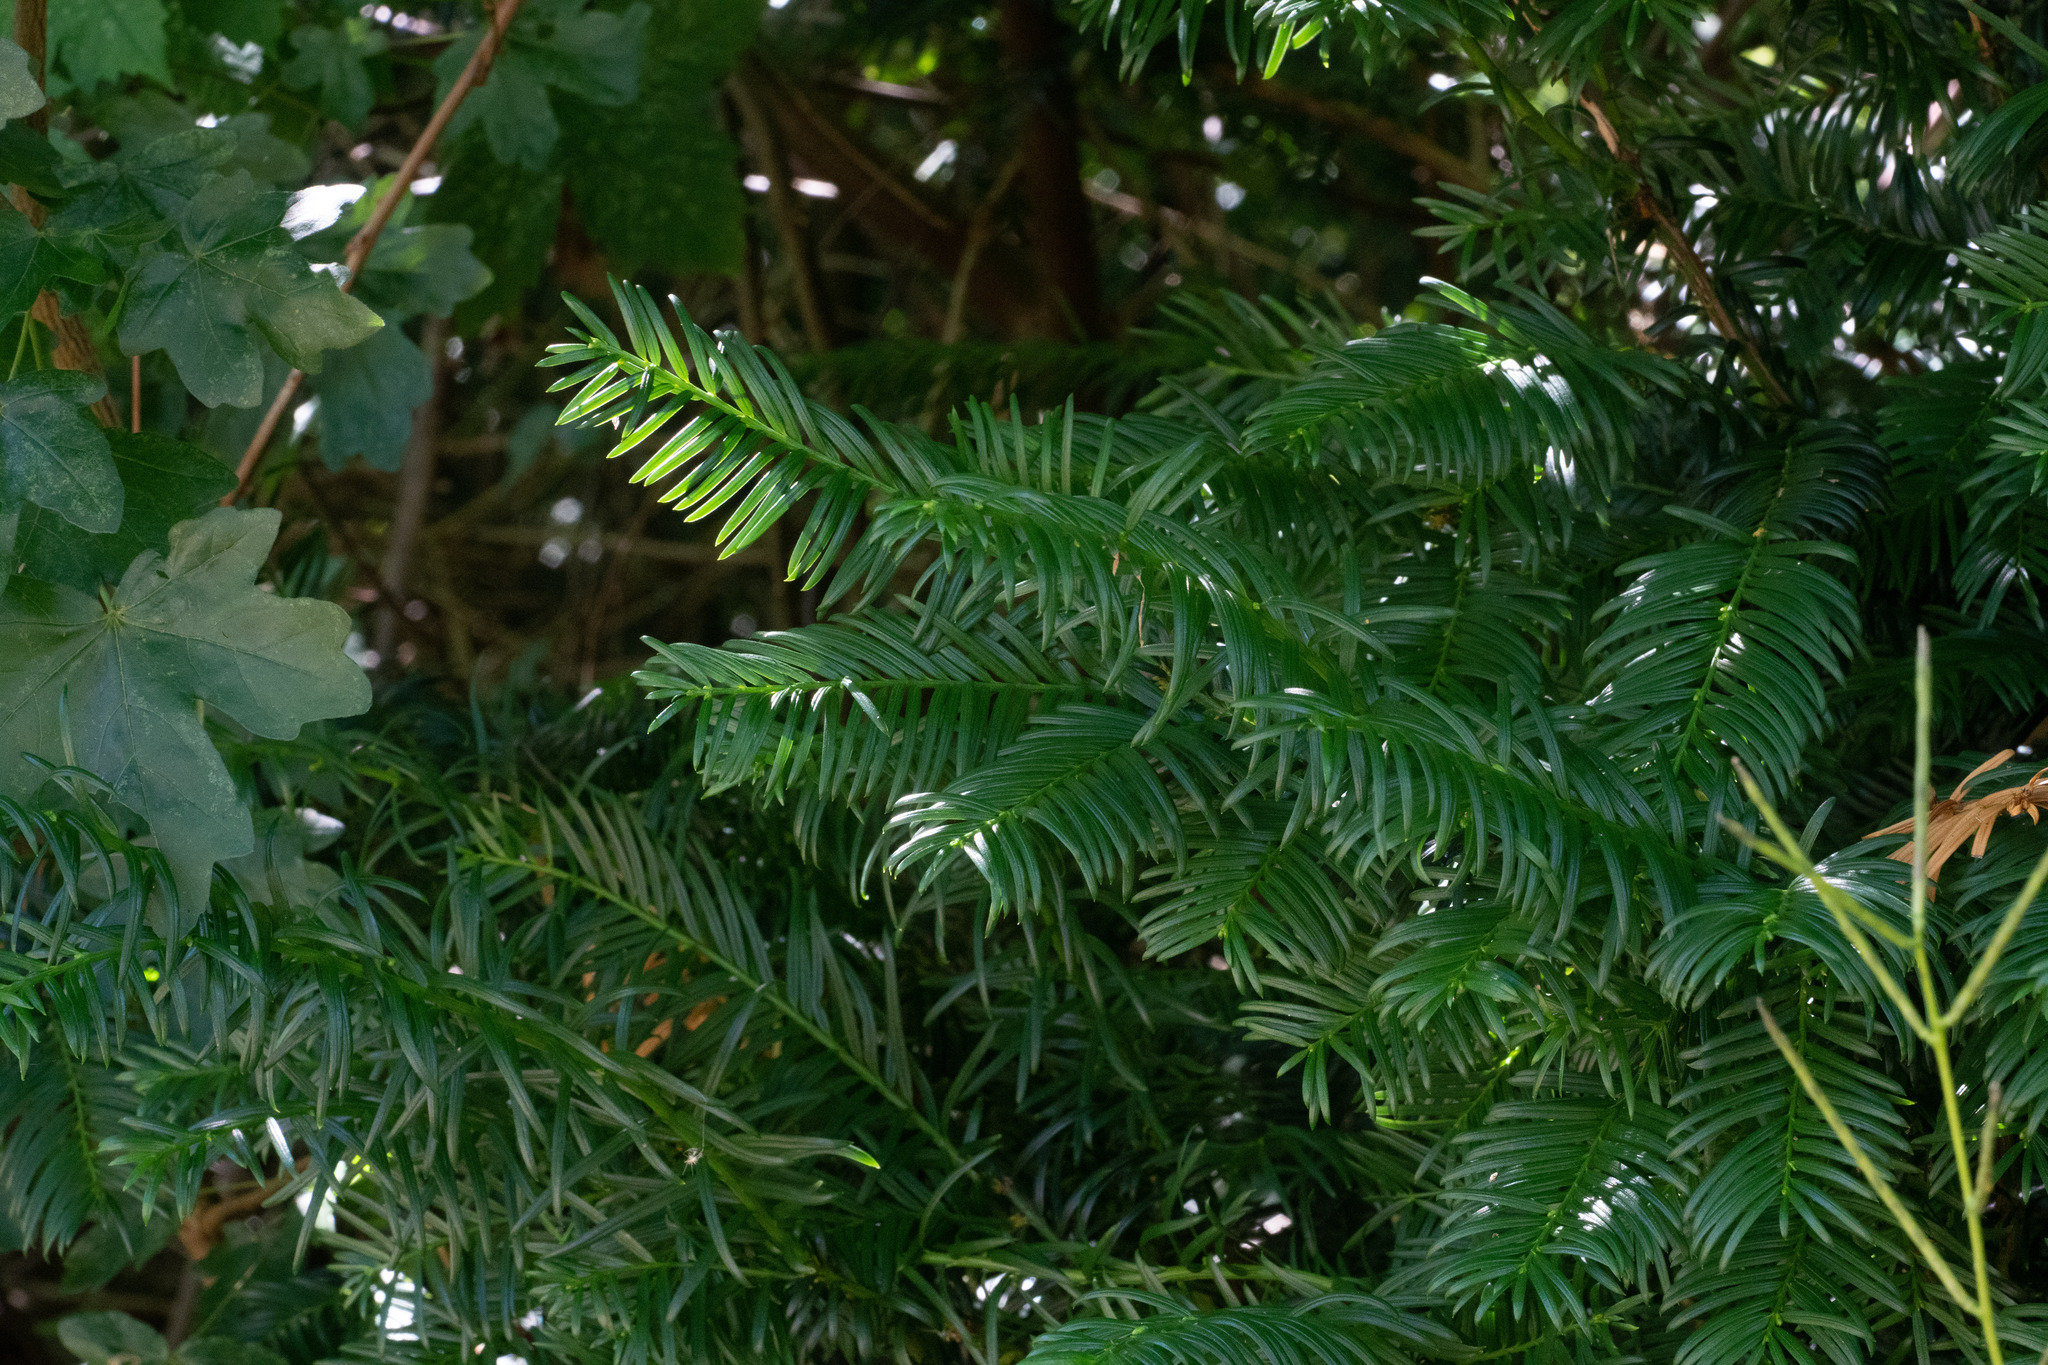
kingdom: Plantae
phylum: Tracheophyta
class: Pinopsida
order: Pinales
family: Taxaceae
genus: Taxus
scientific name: Taxus baccata
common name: Yew
